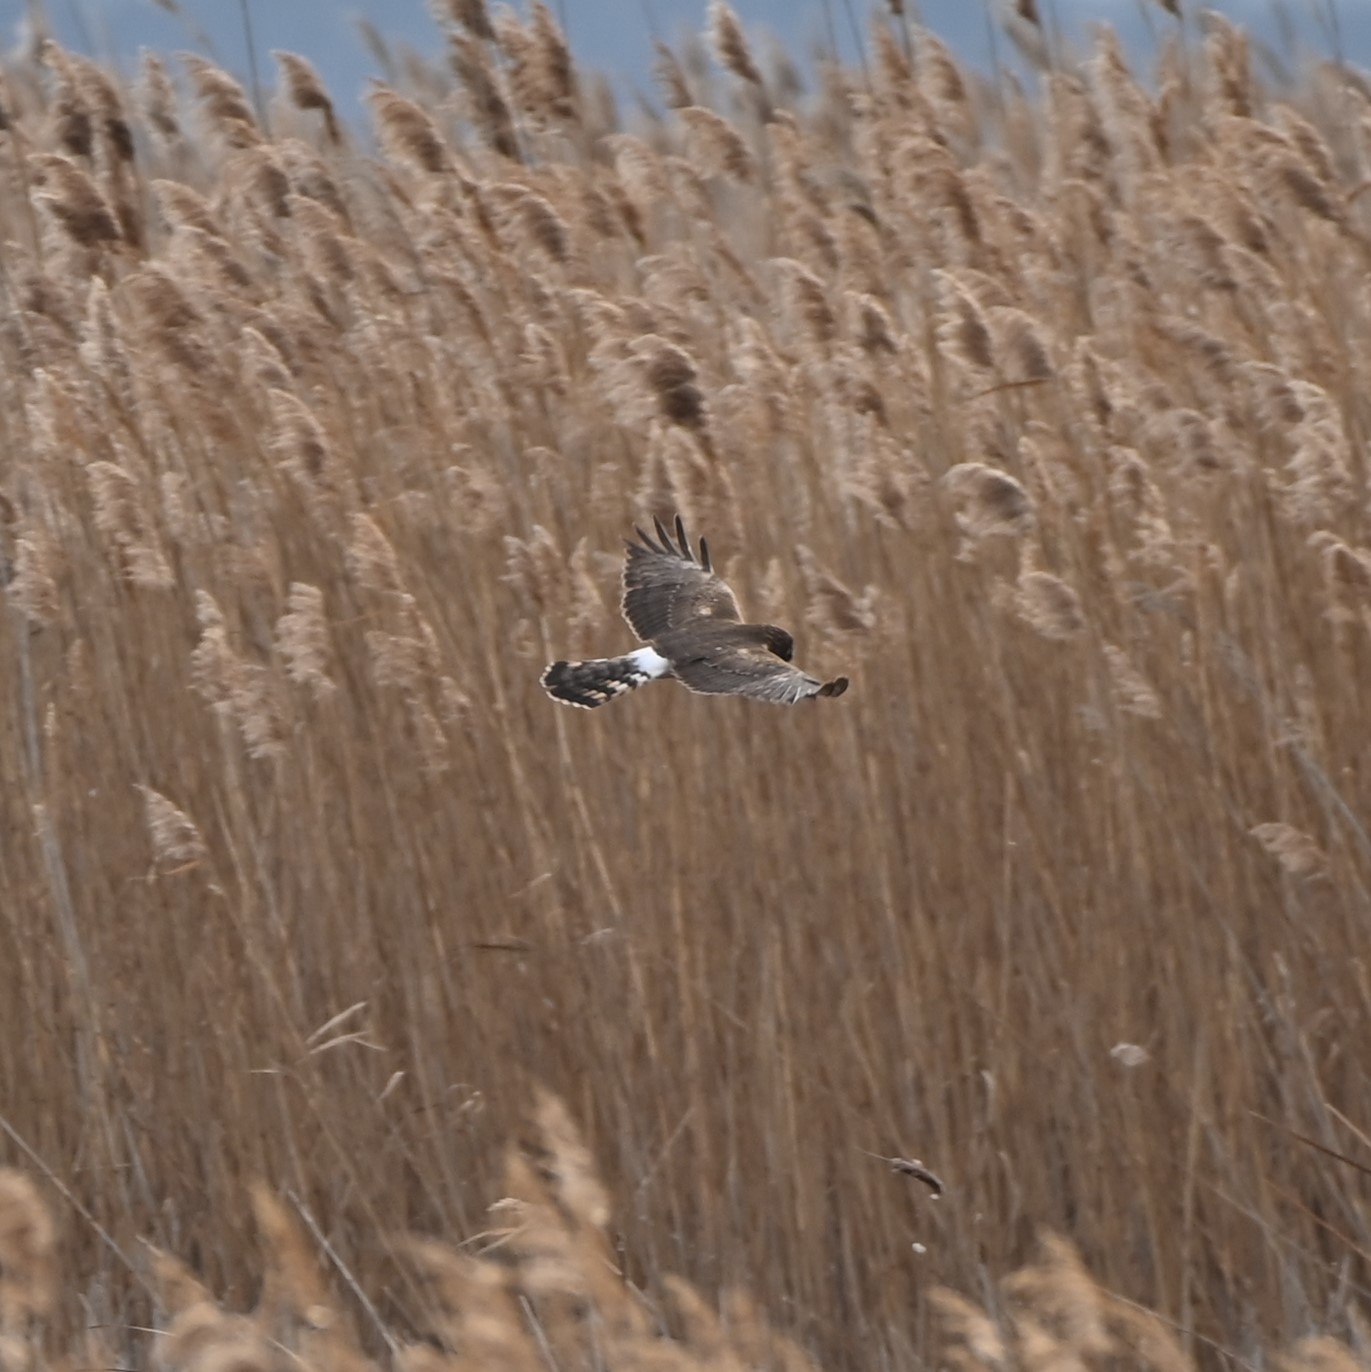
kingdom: Animalia
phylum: Chordata
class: Aves
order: Accipitriformes
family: Accipitridae
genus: Circus
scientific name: Circus cyaneus
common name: Hen harrier
